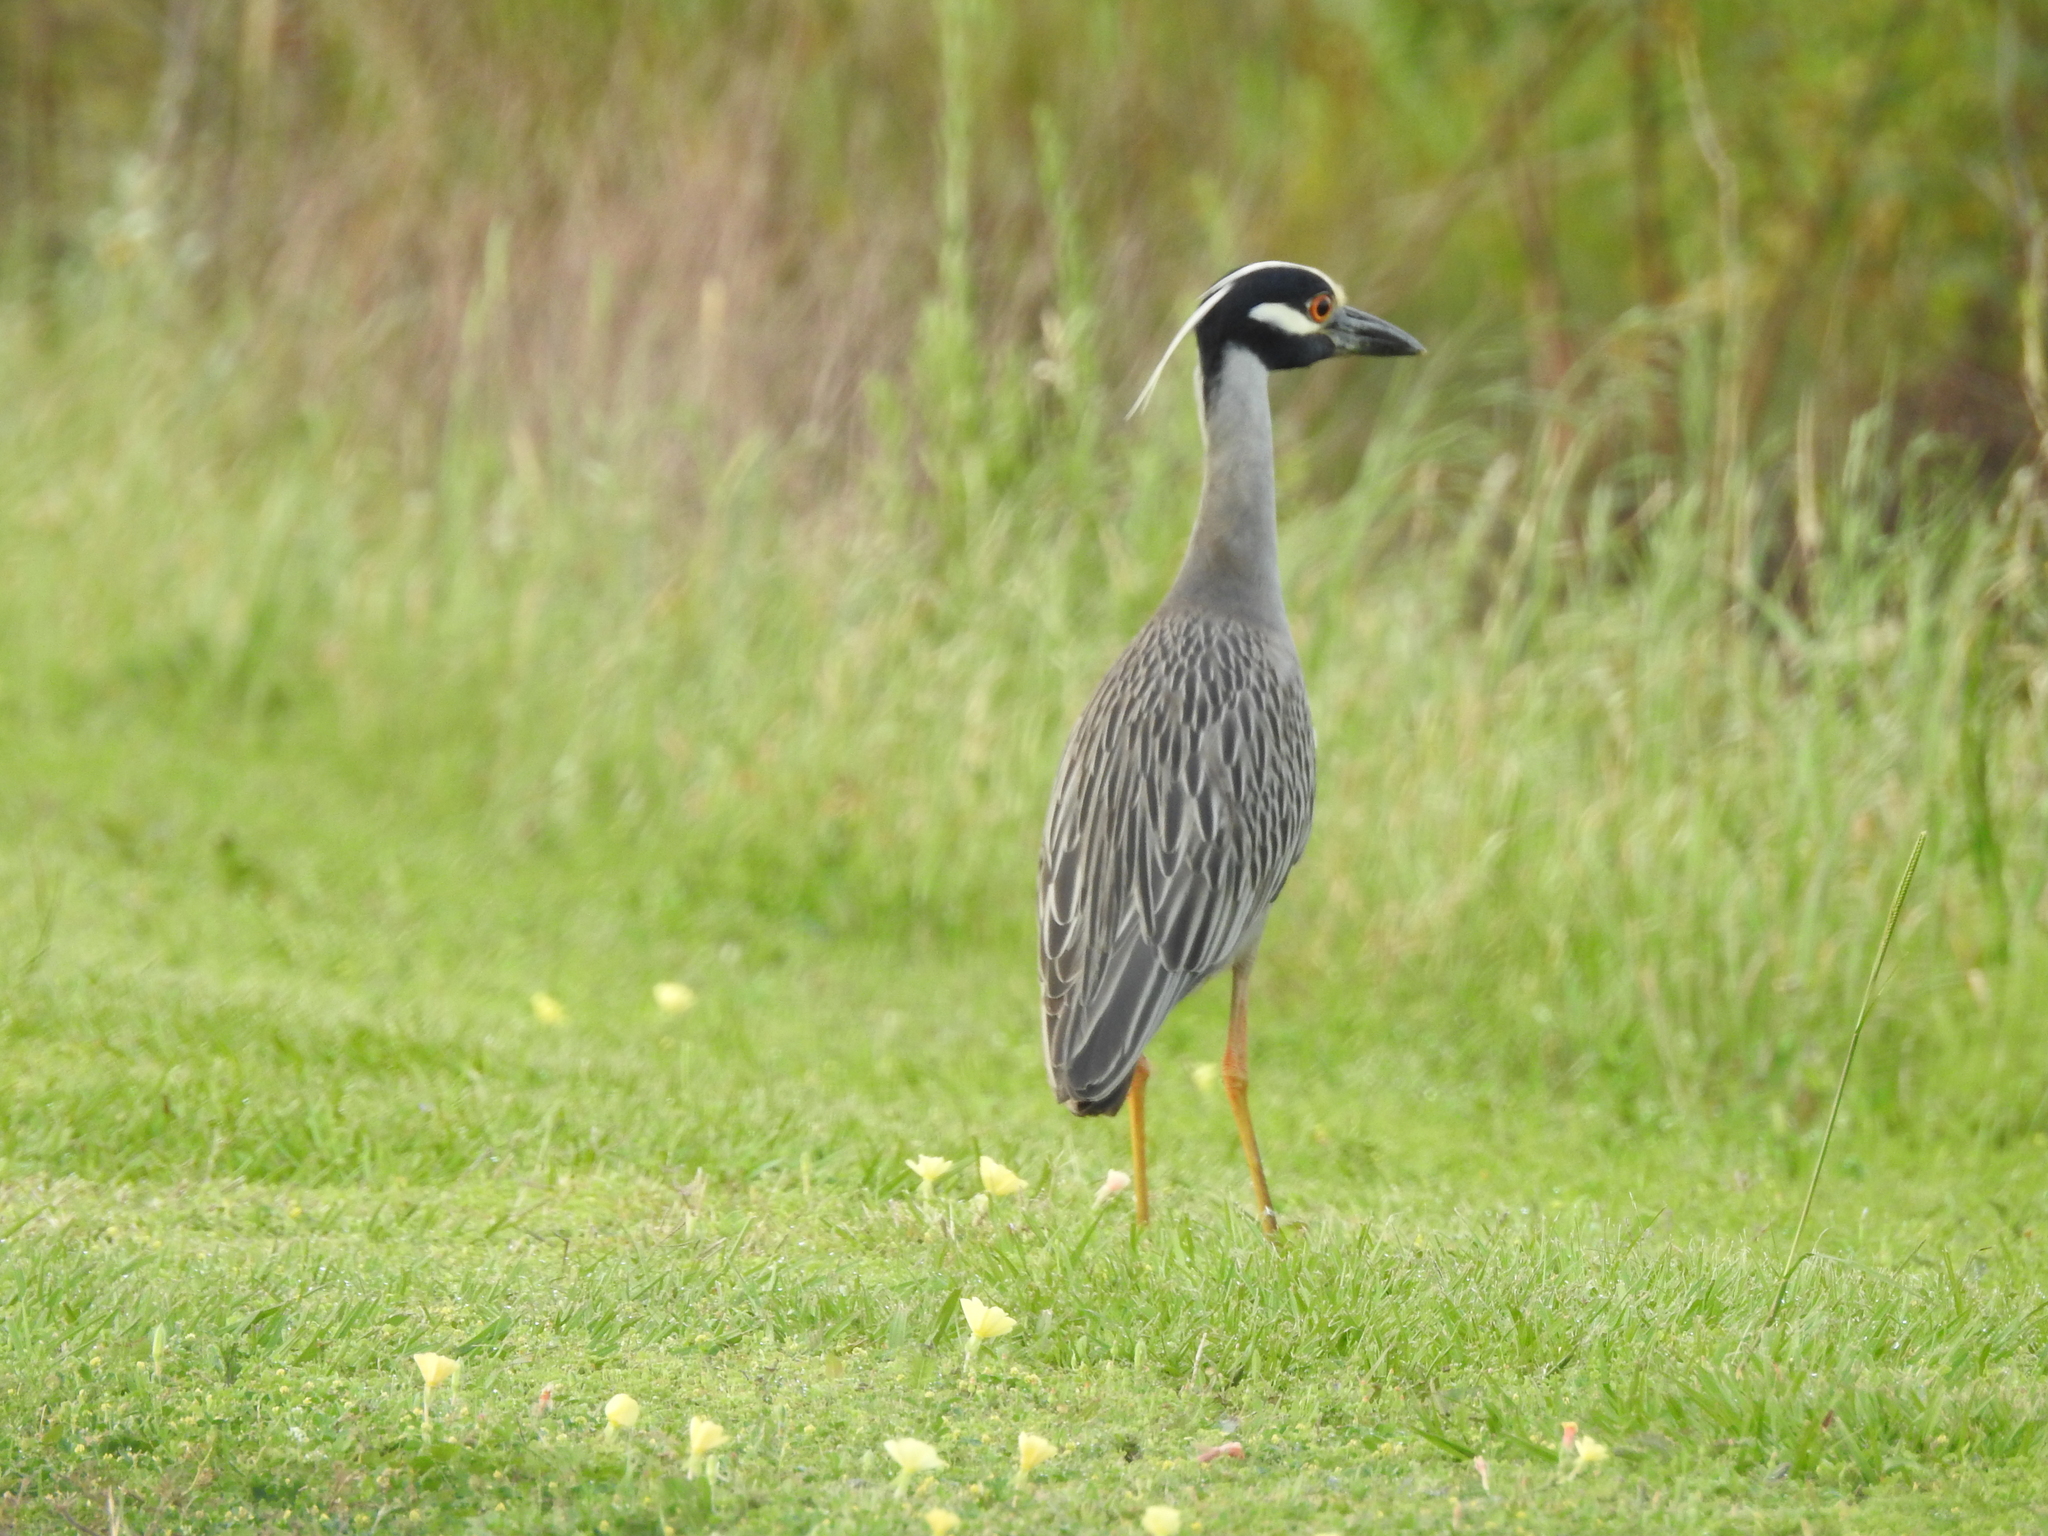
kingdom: Animalia
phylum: Chordata
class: Aves
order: Pelecaniformes
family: Ardeidae
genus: Nyctanassa
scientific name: Nyctanassa violacea
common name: Yellow-crowned night heron
